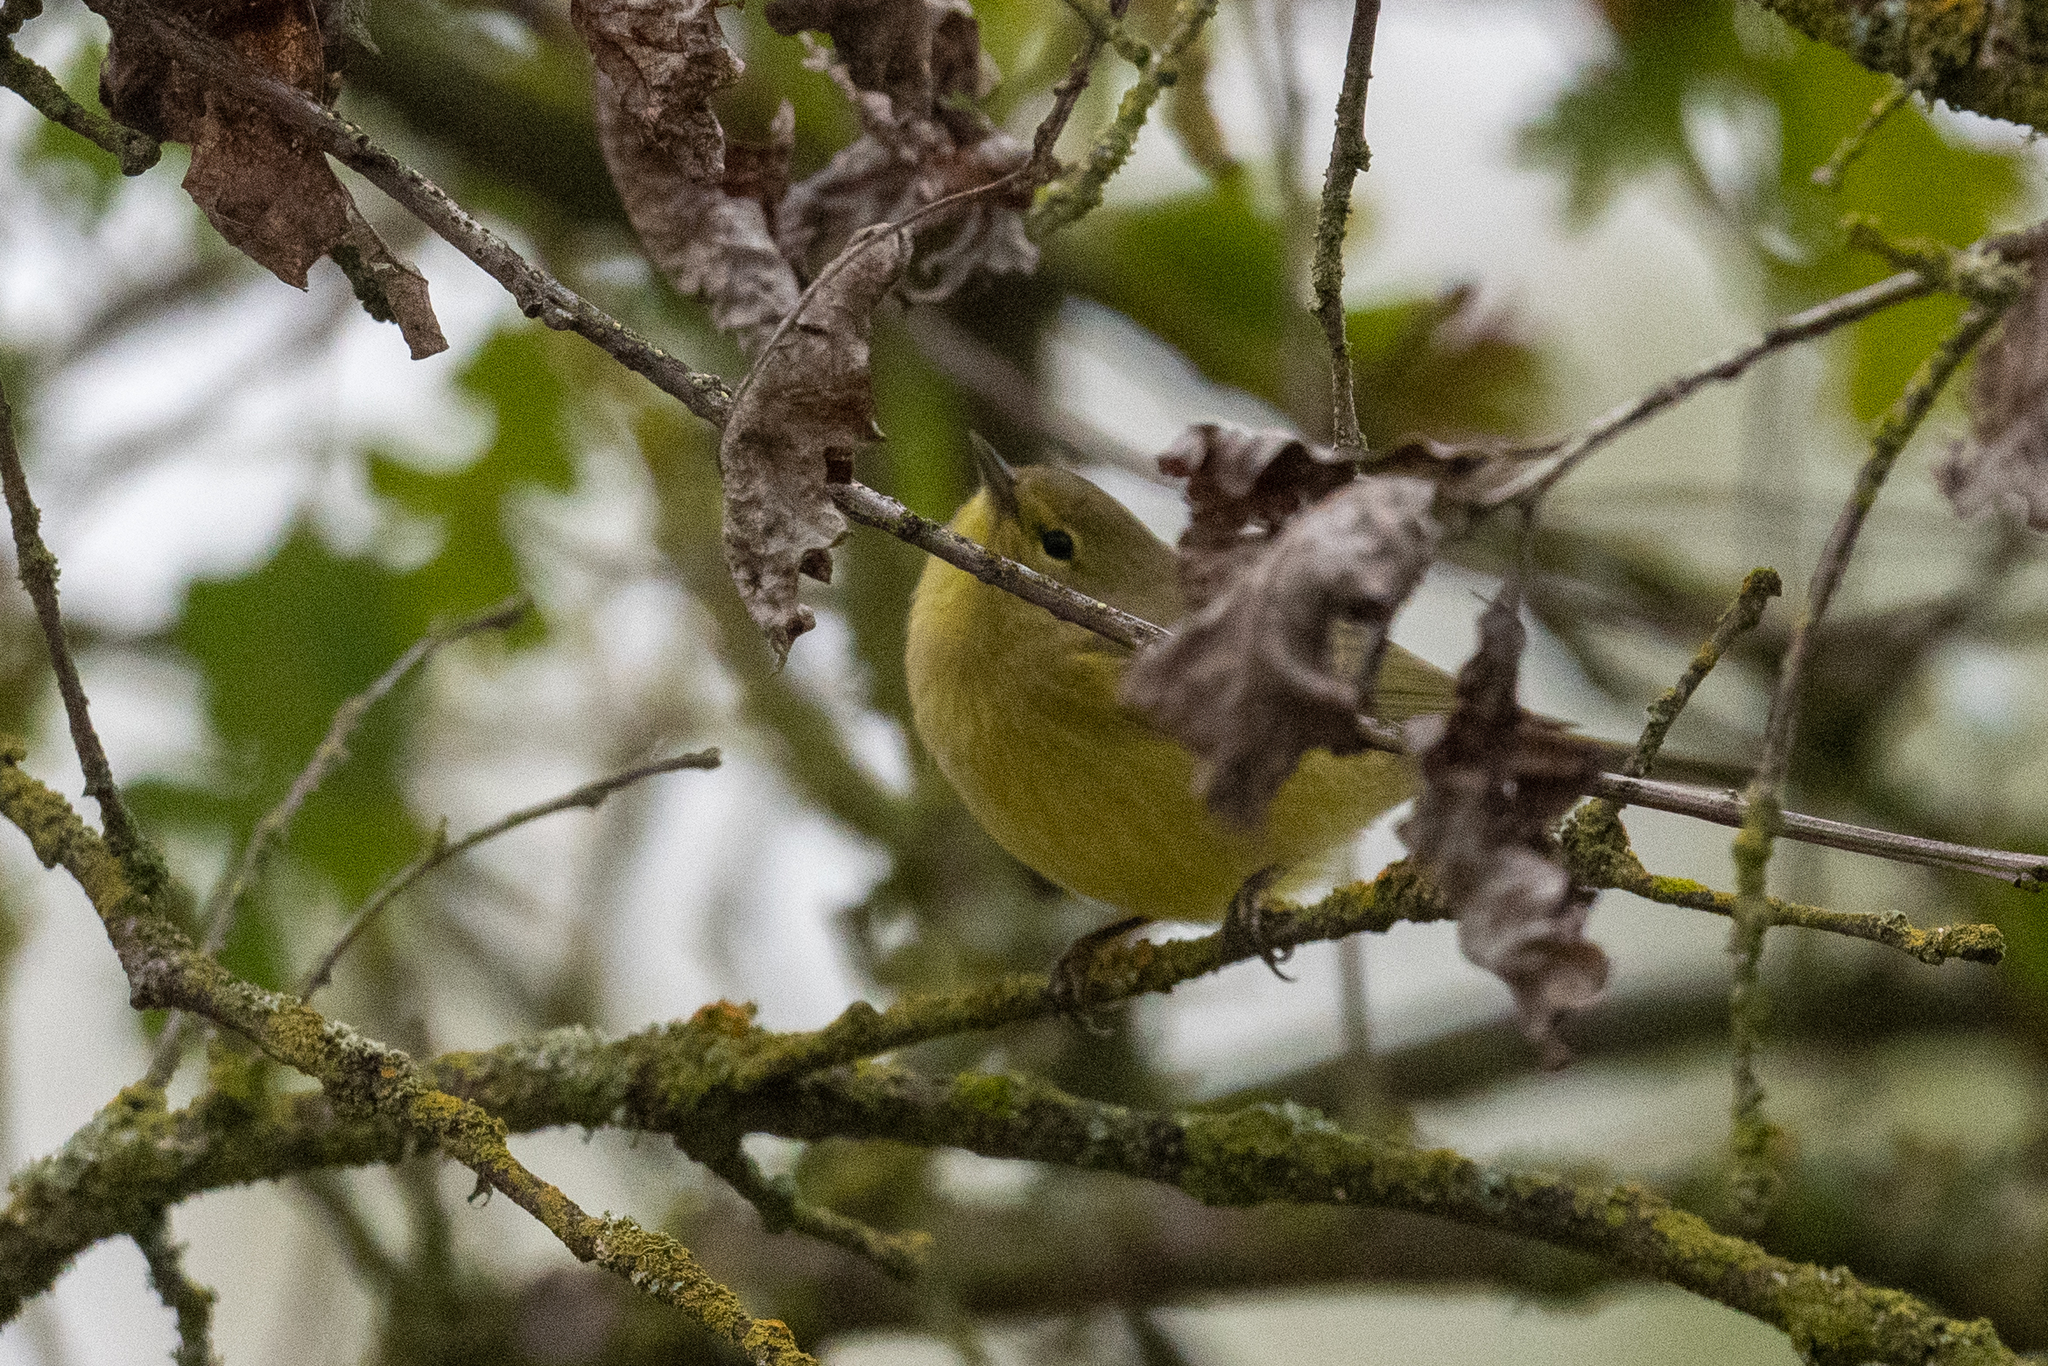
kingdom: Animalia
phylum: Chordata
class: Aves
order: Passeriformes
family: Parulidae
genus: Leiothlypis
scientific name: Leiothlypis celata
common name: Orange-crowned warbler
